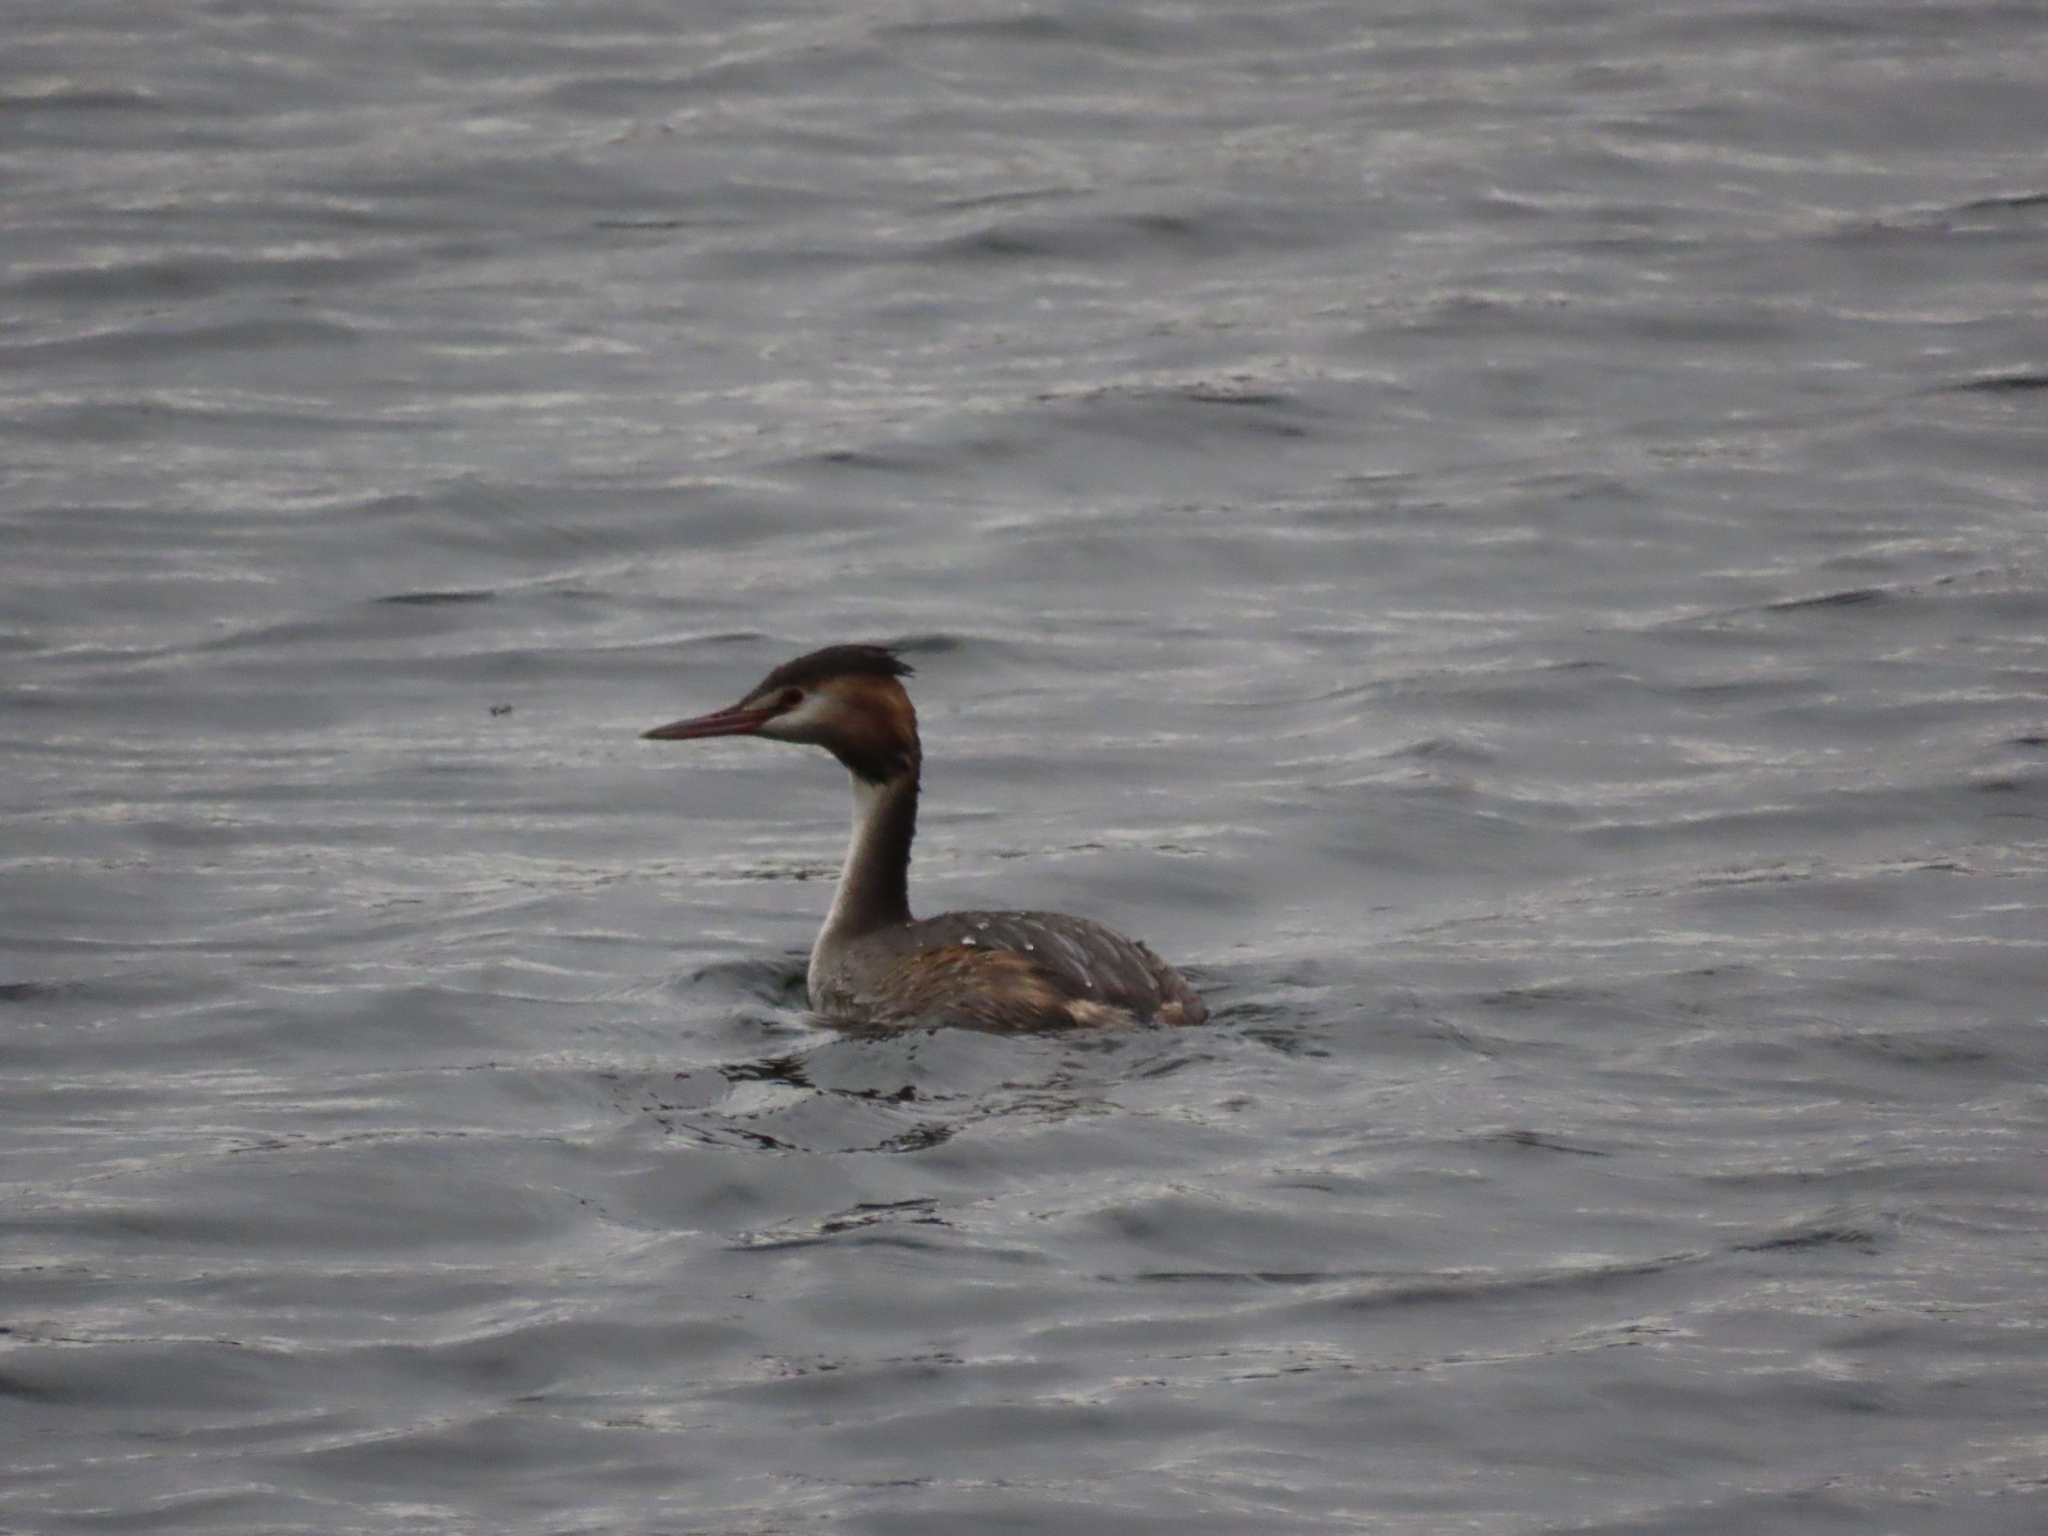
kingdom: Animalia
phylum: Chordata
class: Aves
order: Podicipediformes
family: Podicipedidae
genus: Podiceps
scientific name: Podiceps cristatus
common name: Great crested grebe
